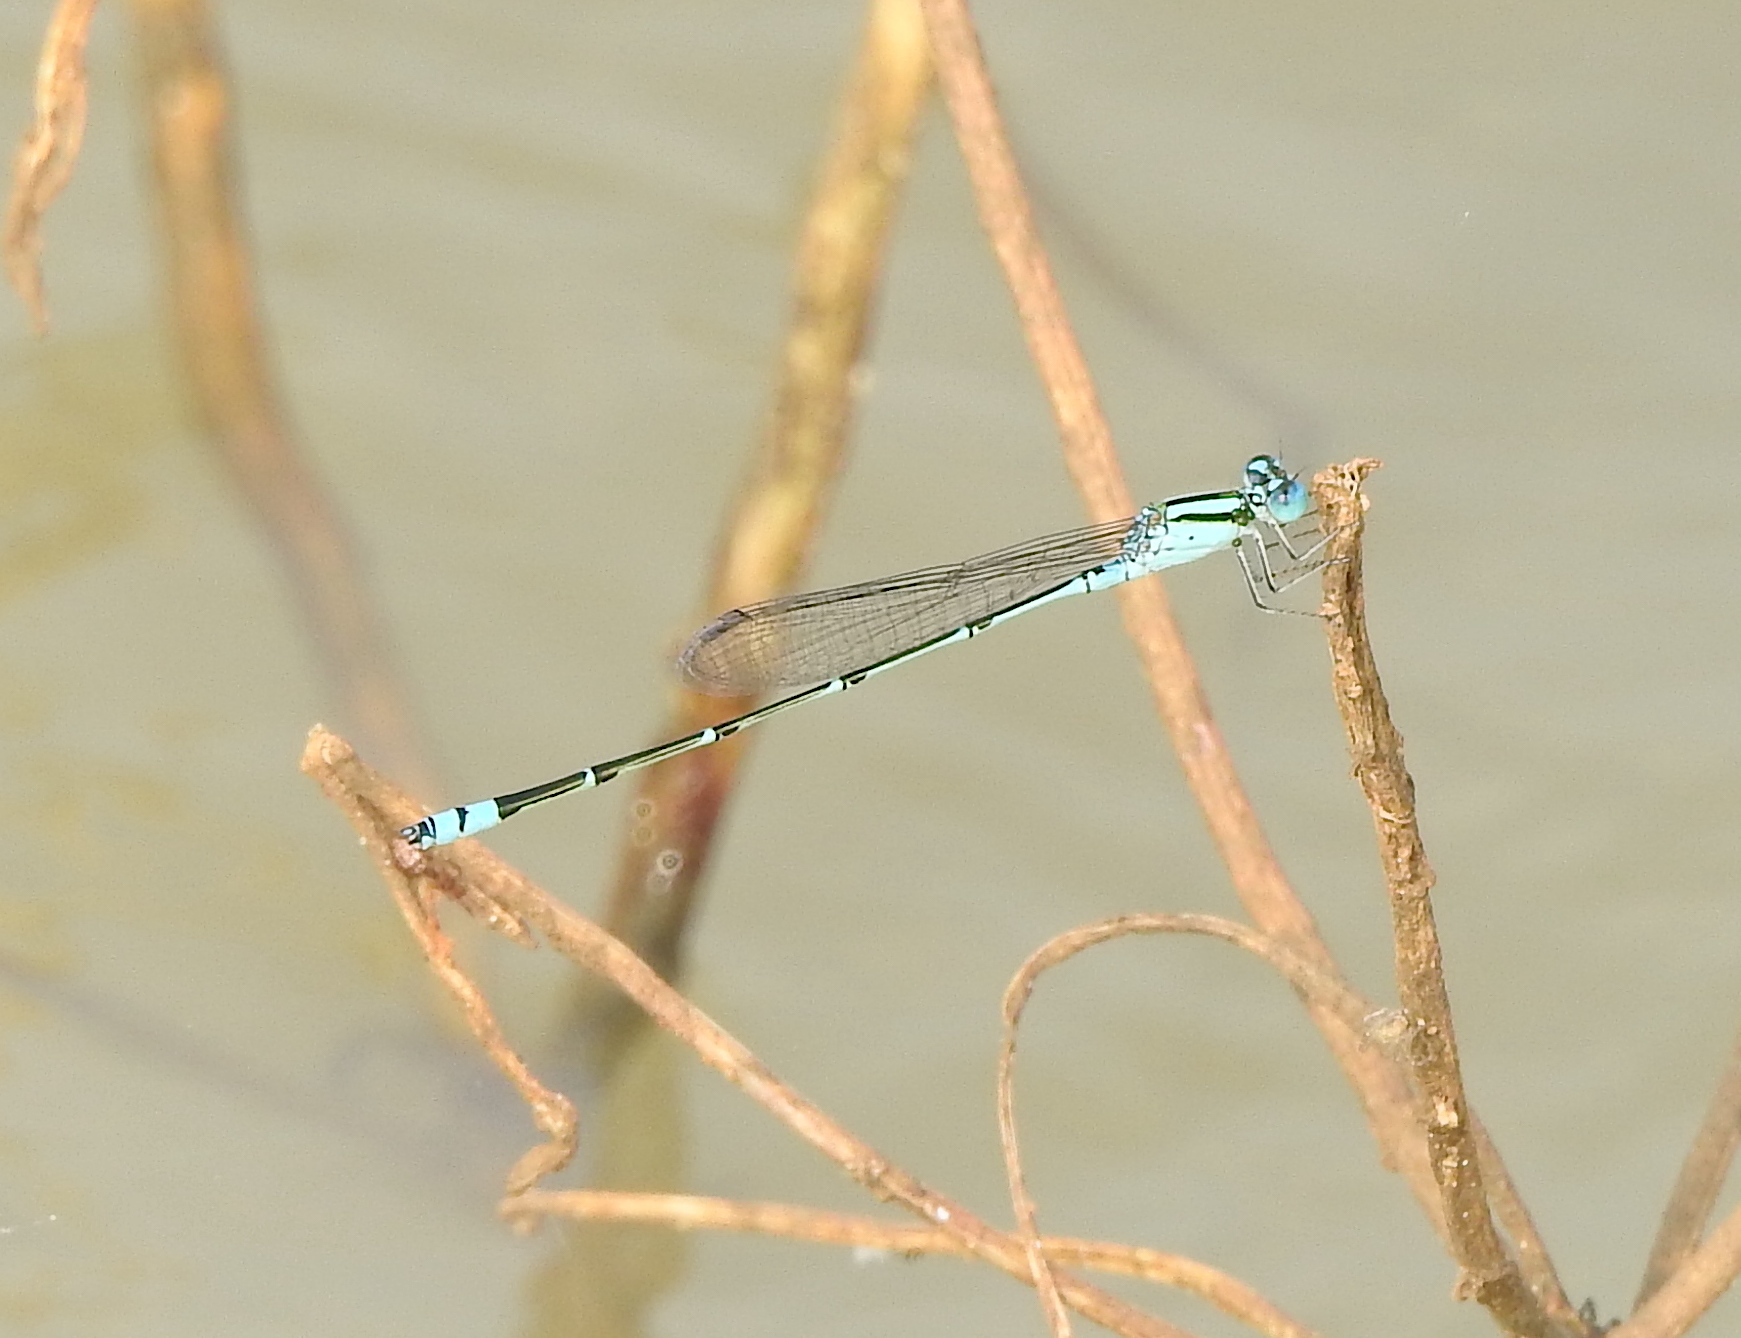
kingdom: Animalia
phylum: Arthropoda
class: Insecta
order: Odonata
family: Coenagrionidae
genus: Pseudagrion
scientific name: Pseudagrion microcephalum
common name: Blue riverdamsel
